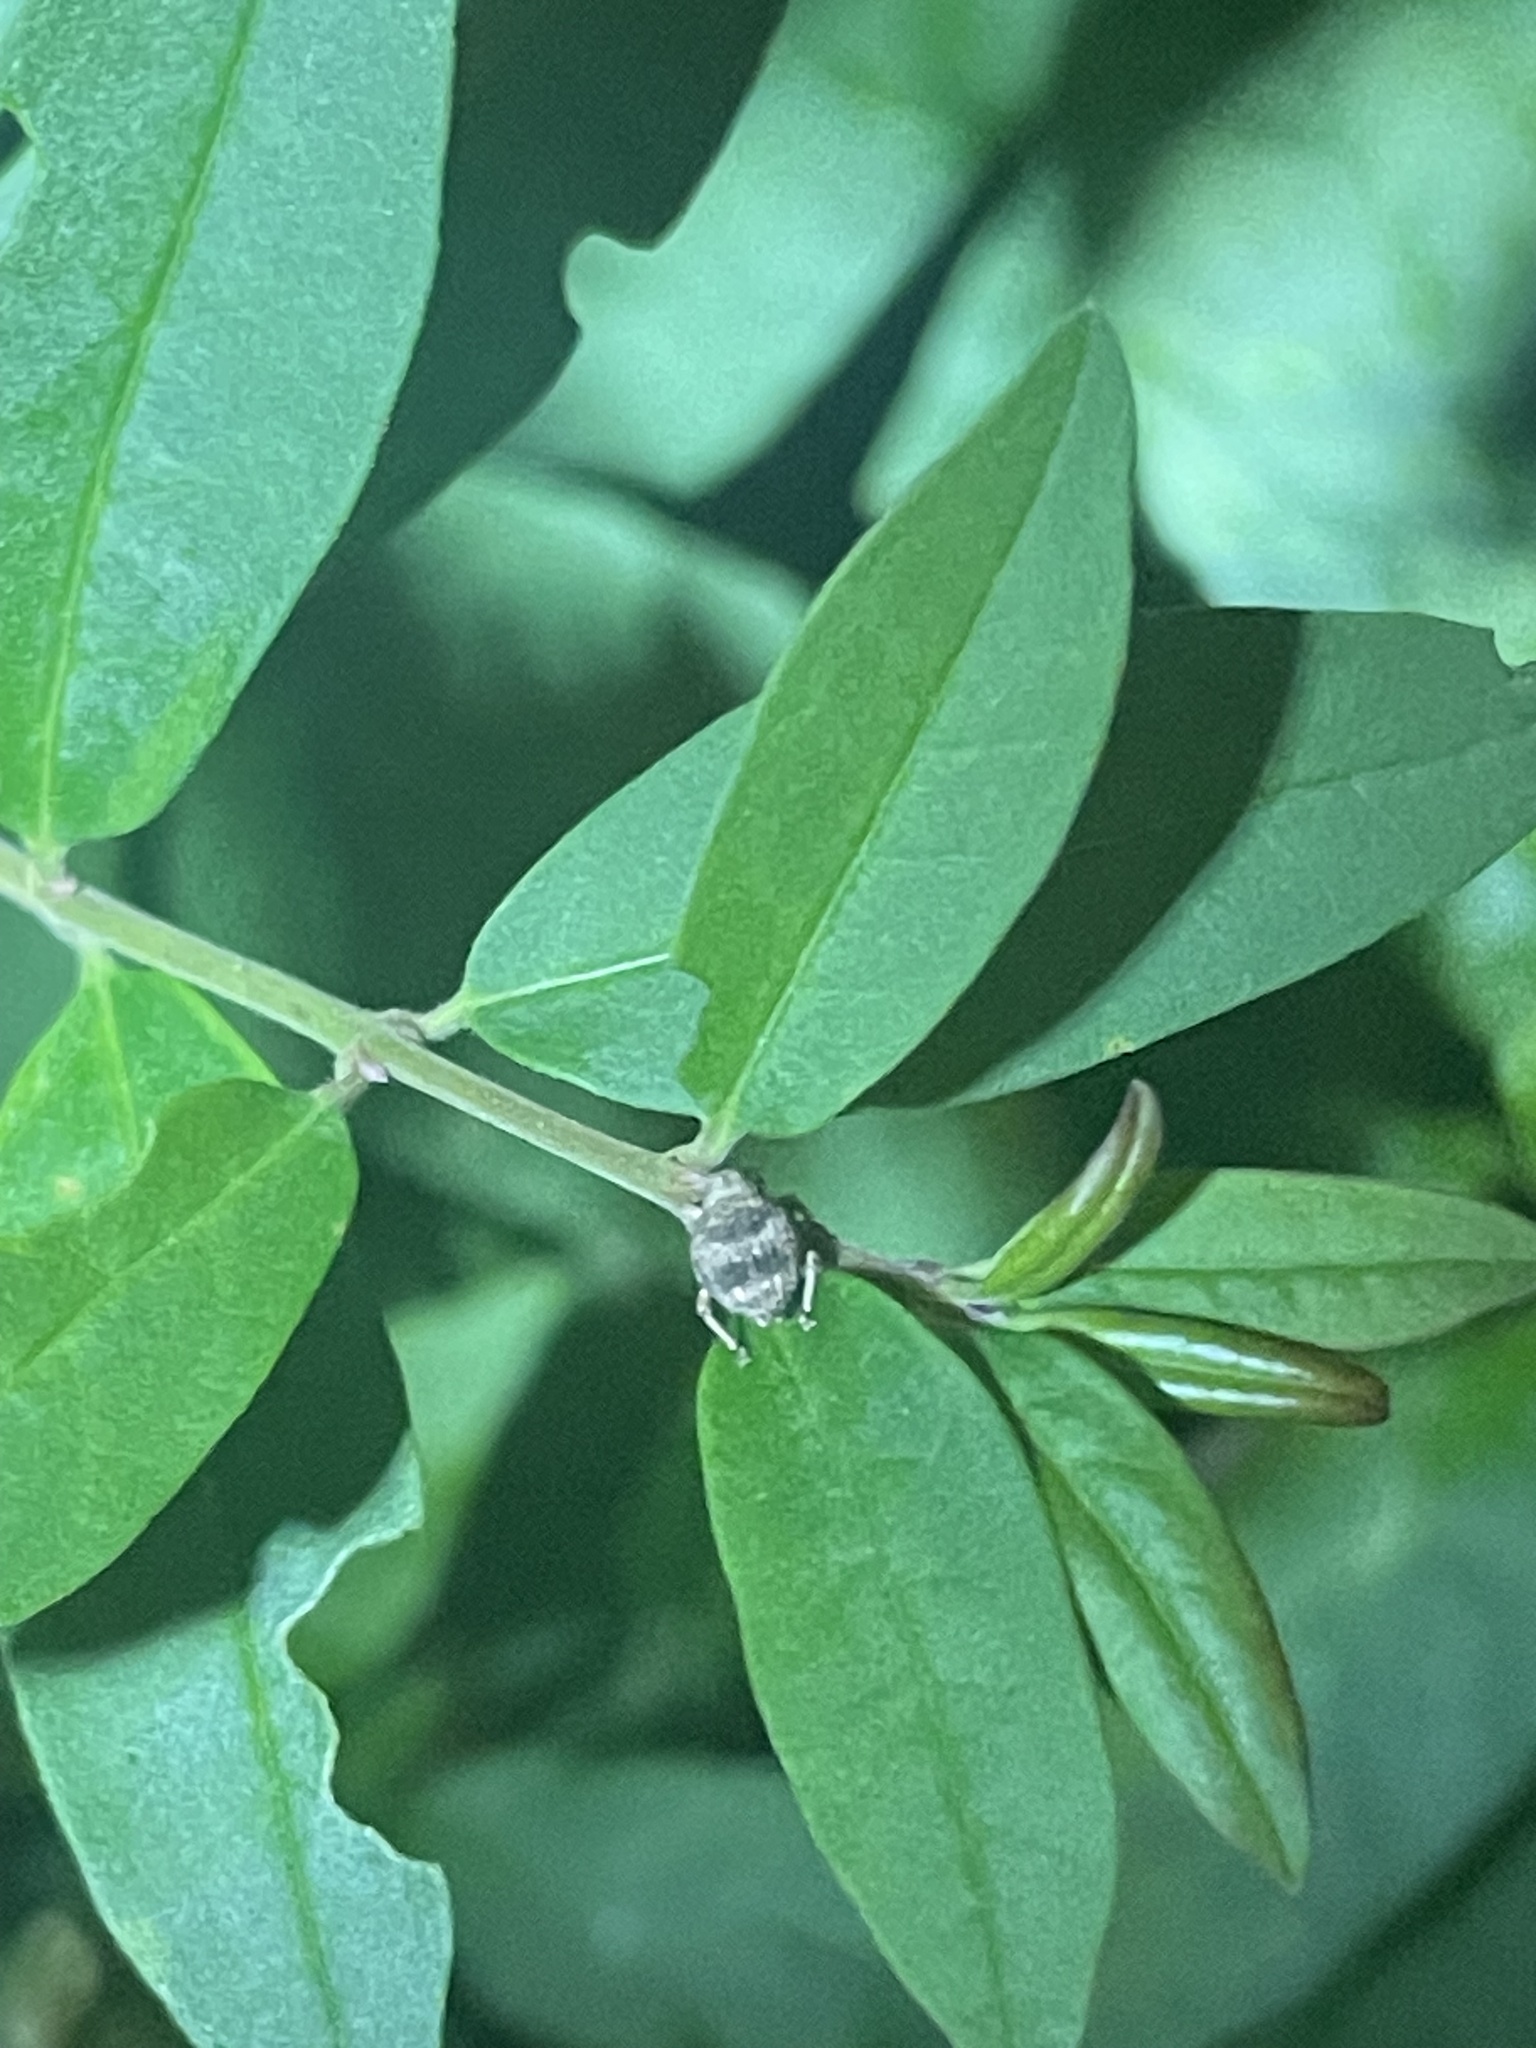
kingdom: Animalia
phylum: Arthropoda
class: Insecta
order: Coleoptera
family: Curculionidae
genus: Pseudocneorhinus
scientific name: Pseudocneorhinus bifasciatus
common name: Two-banded japanese weevil
